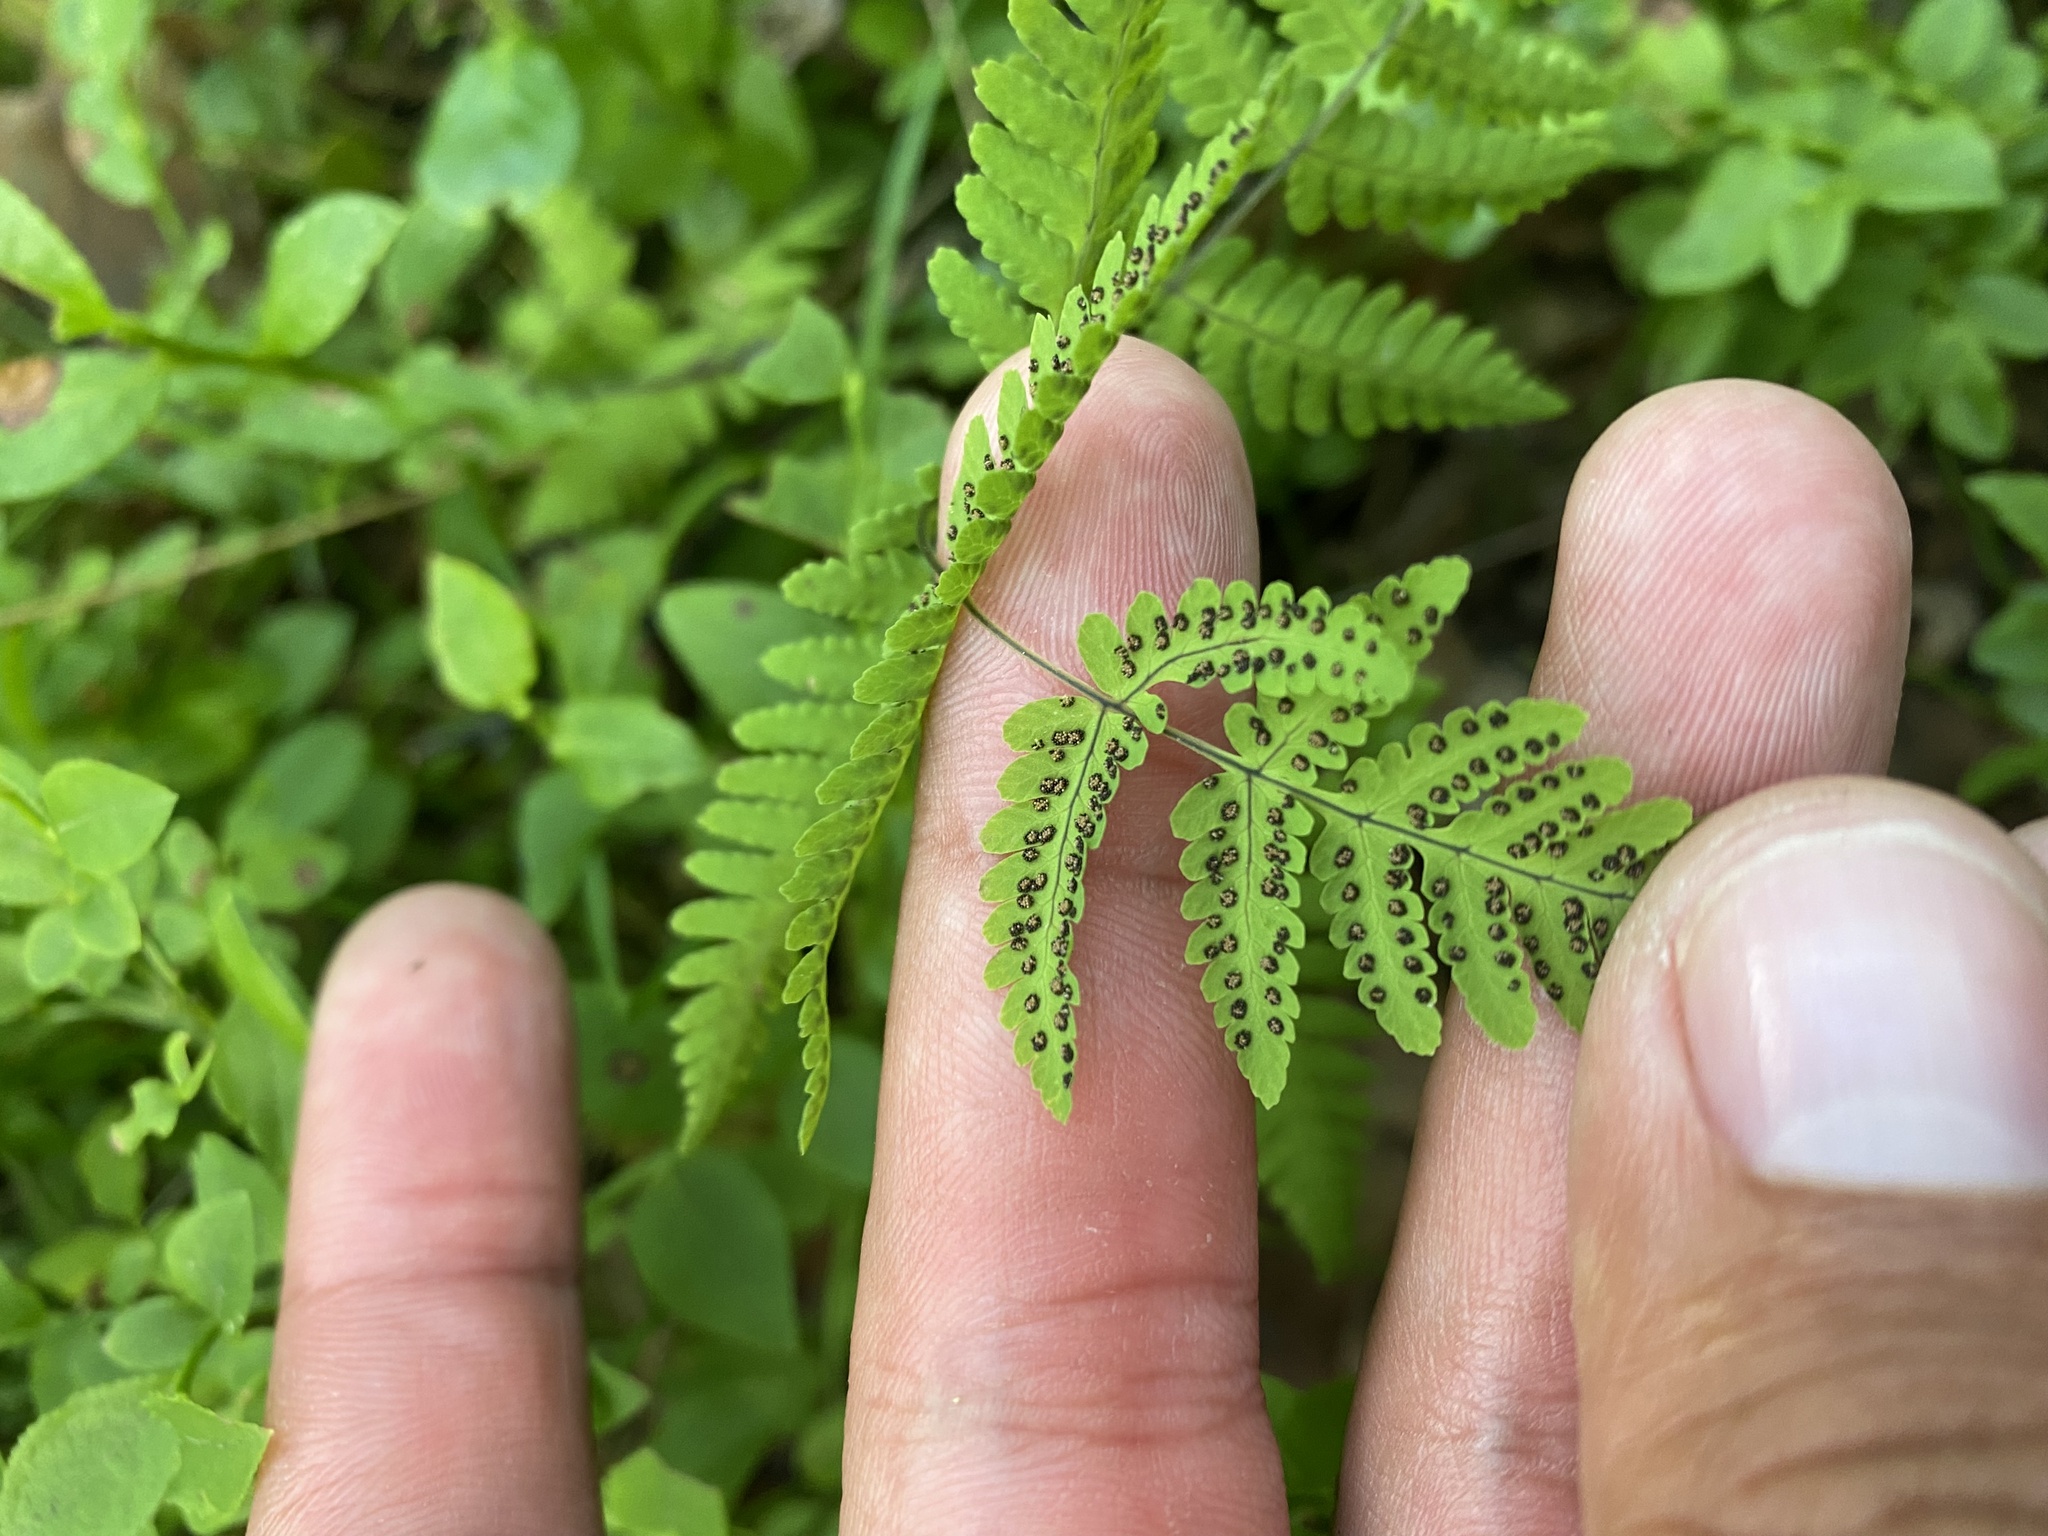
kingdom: Plantae
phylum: Tracheophyta
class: Polypodiopsida
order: Polypodiales
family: Cystopteridaceae
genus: Gymnocarpium
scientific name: Gymnocarpium dryopteris
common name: Oak fern
